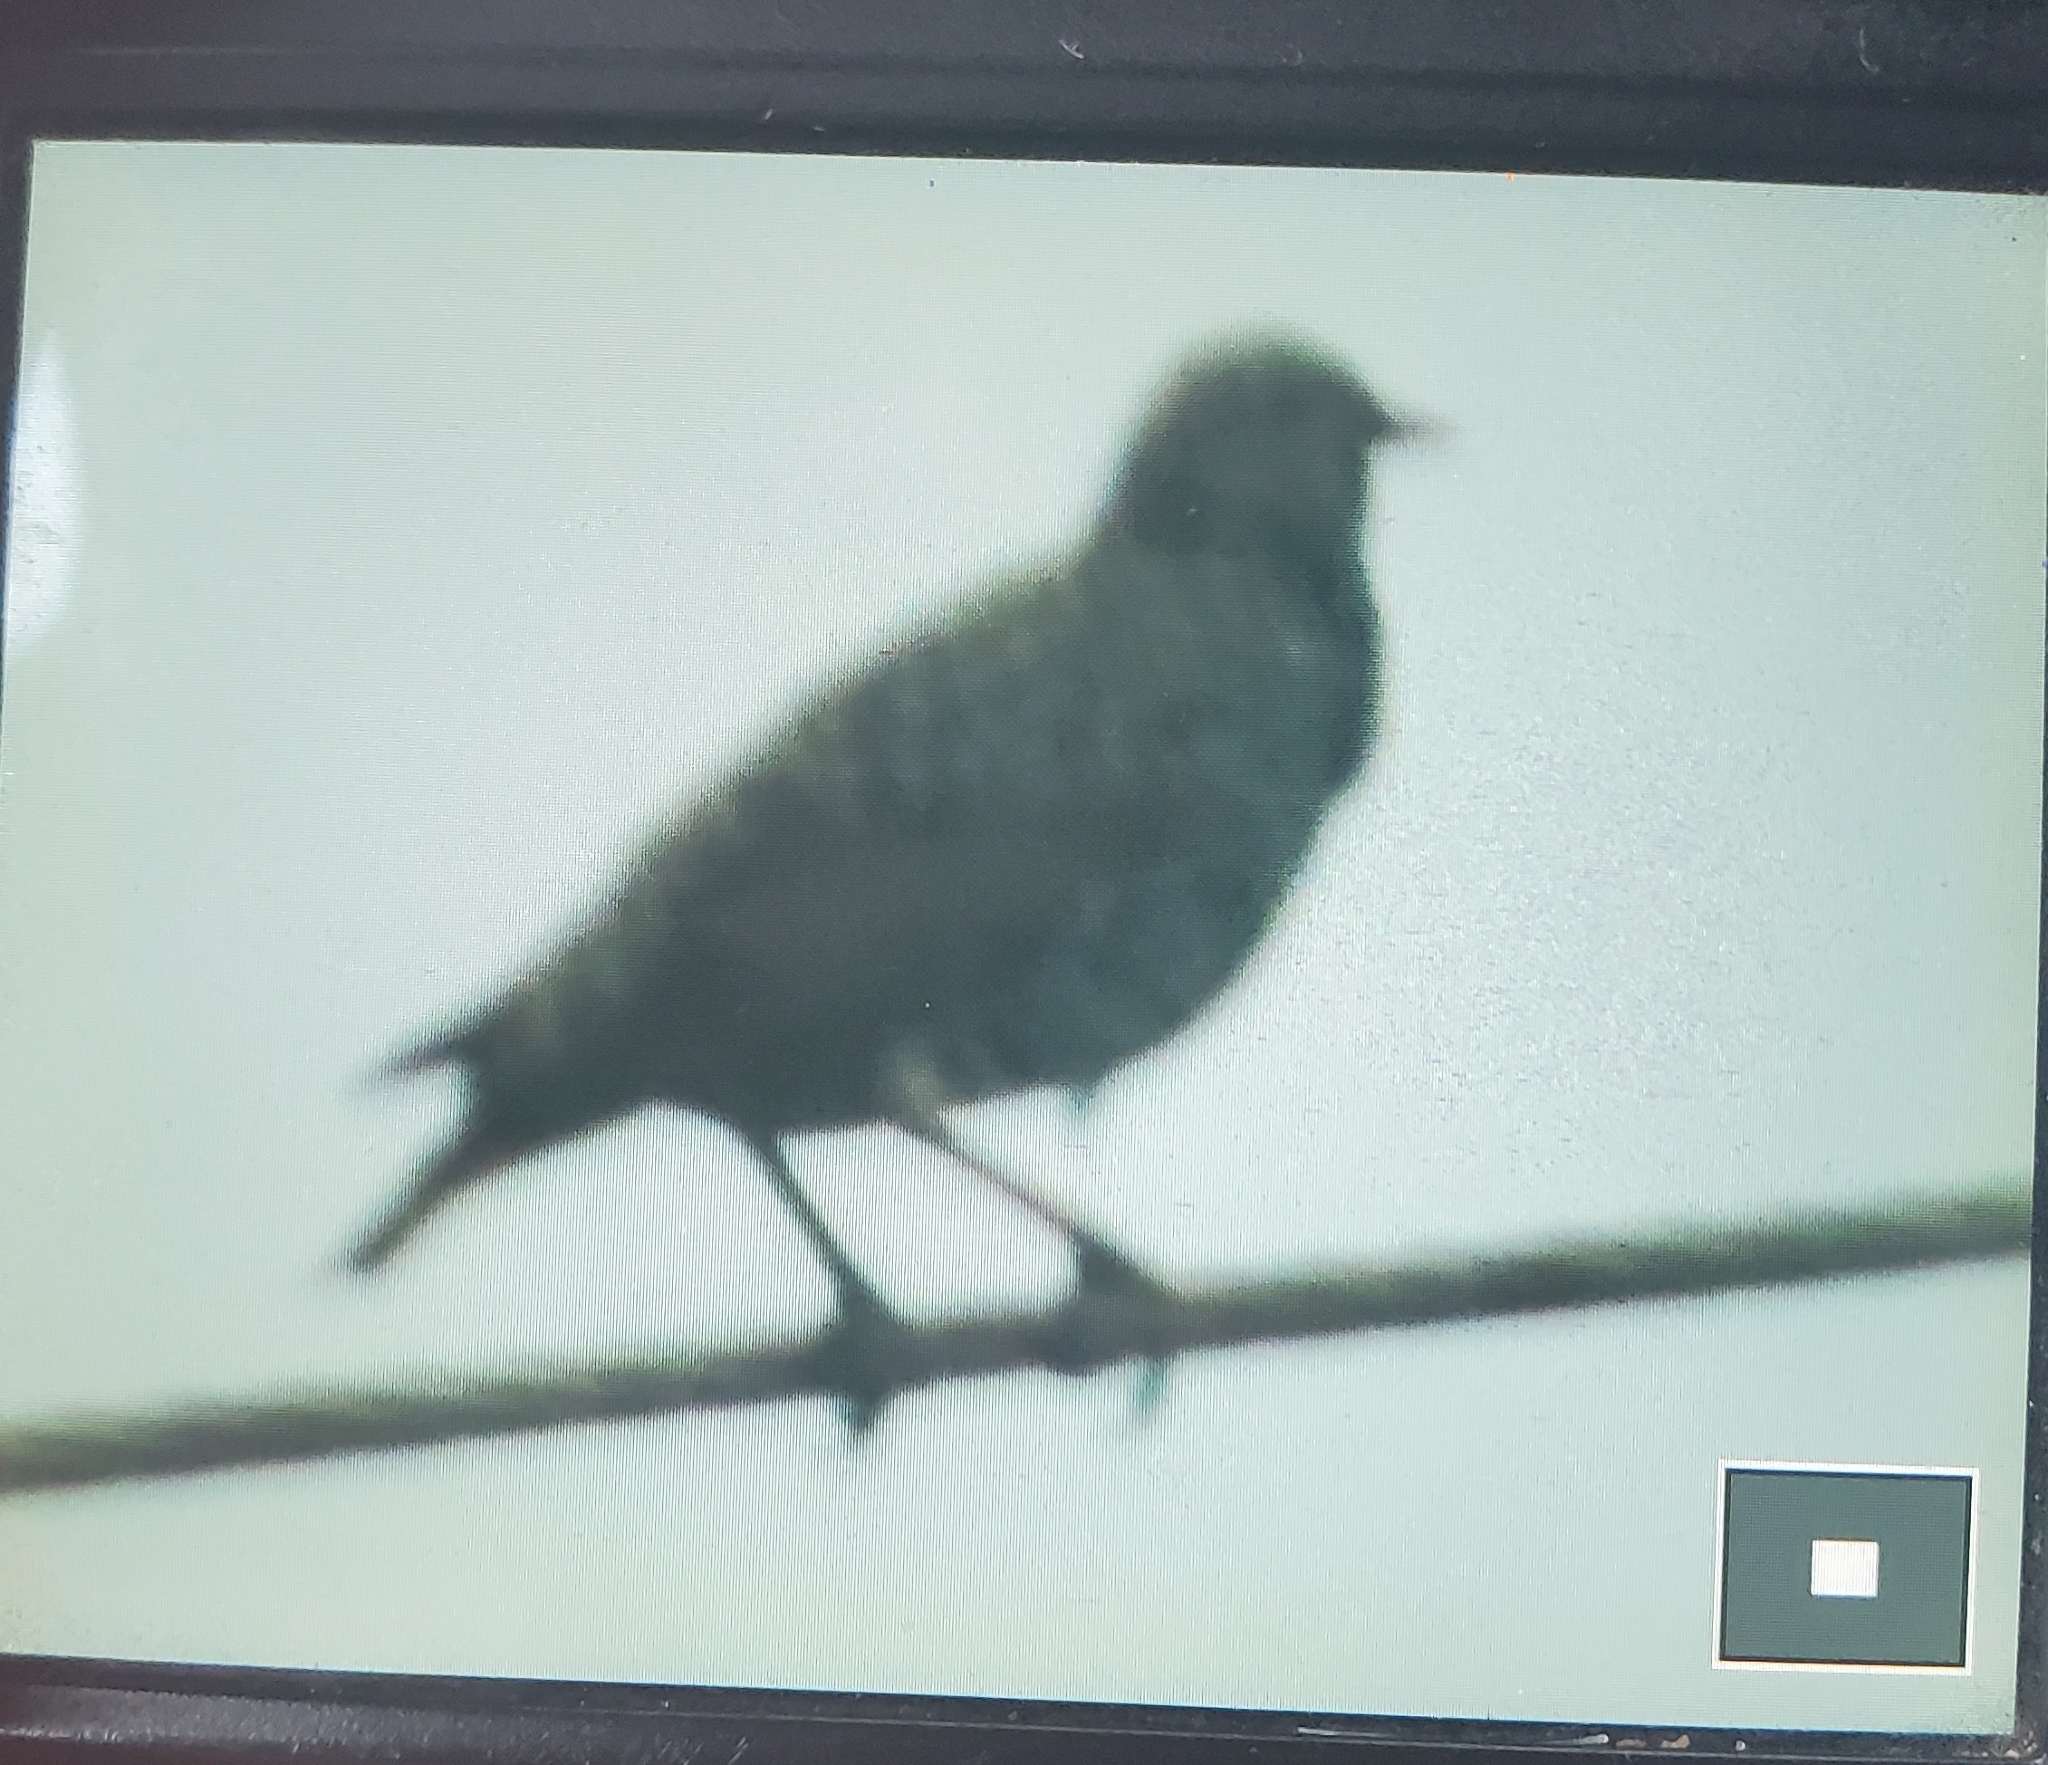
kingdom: Animalia
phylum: Chordata
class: Aves
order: Passeriformes
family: Sturnidae
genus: Sturnus
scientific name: Sturnus vulgaris
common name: Common starling
